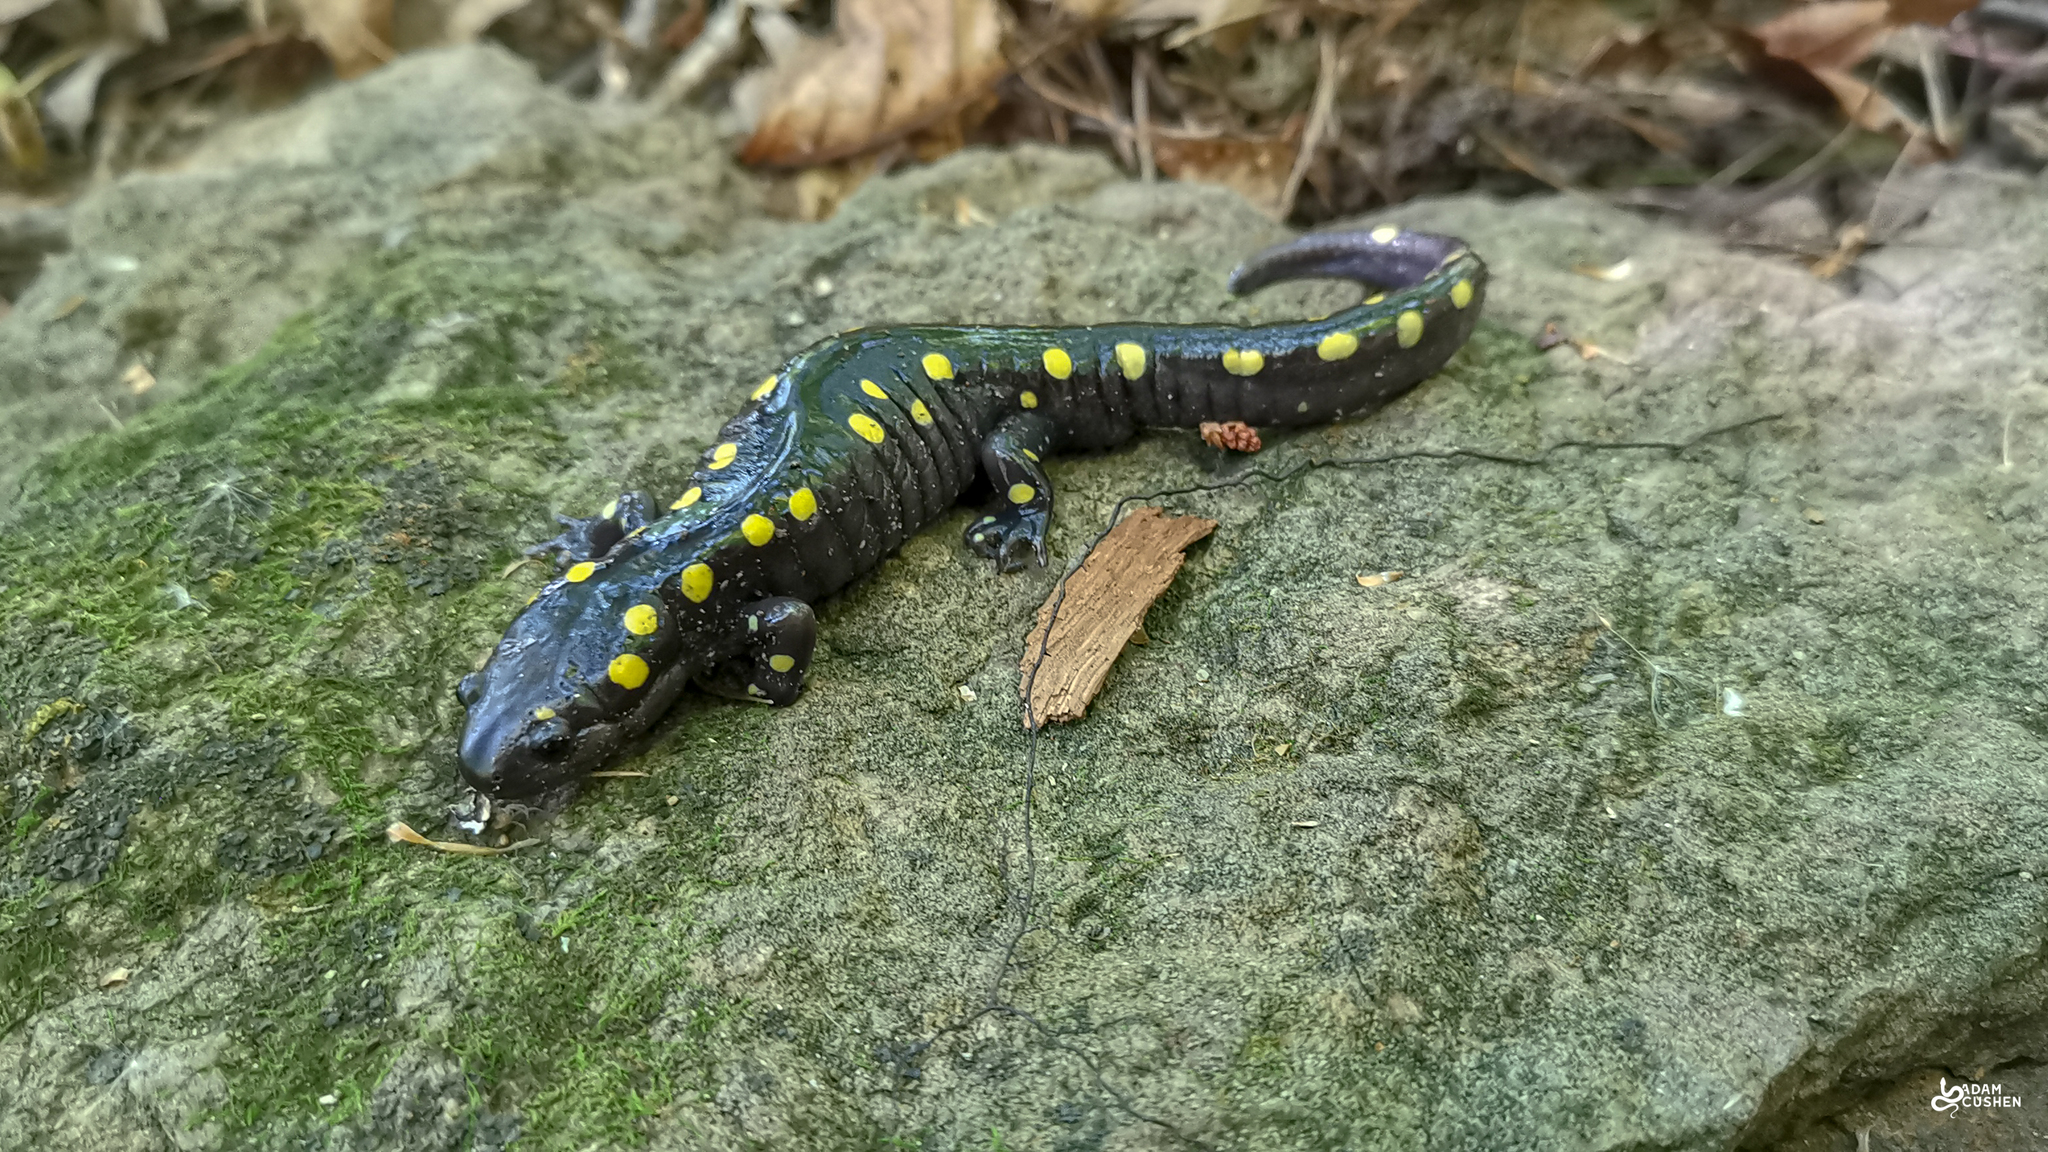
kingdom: Animalia
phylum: Chordata
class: Amphibia
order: Caudata
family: Ambystomatidae
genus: Ambystoma
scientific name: Ambystoma maculatum
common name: Spotted salamander
